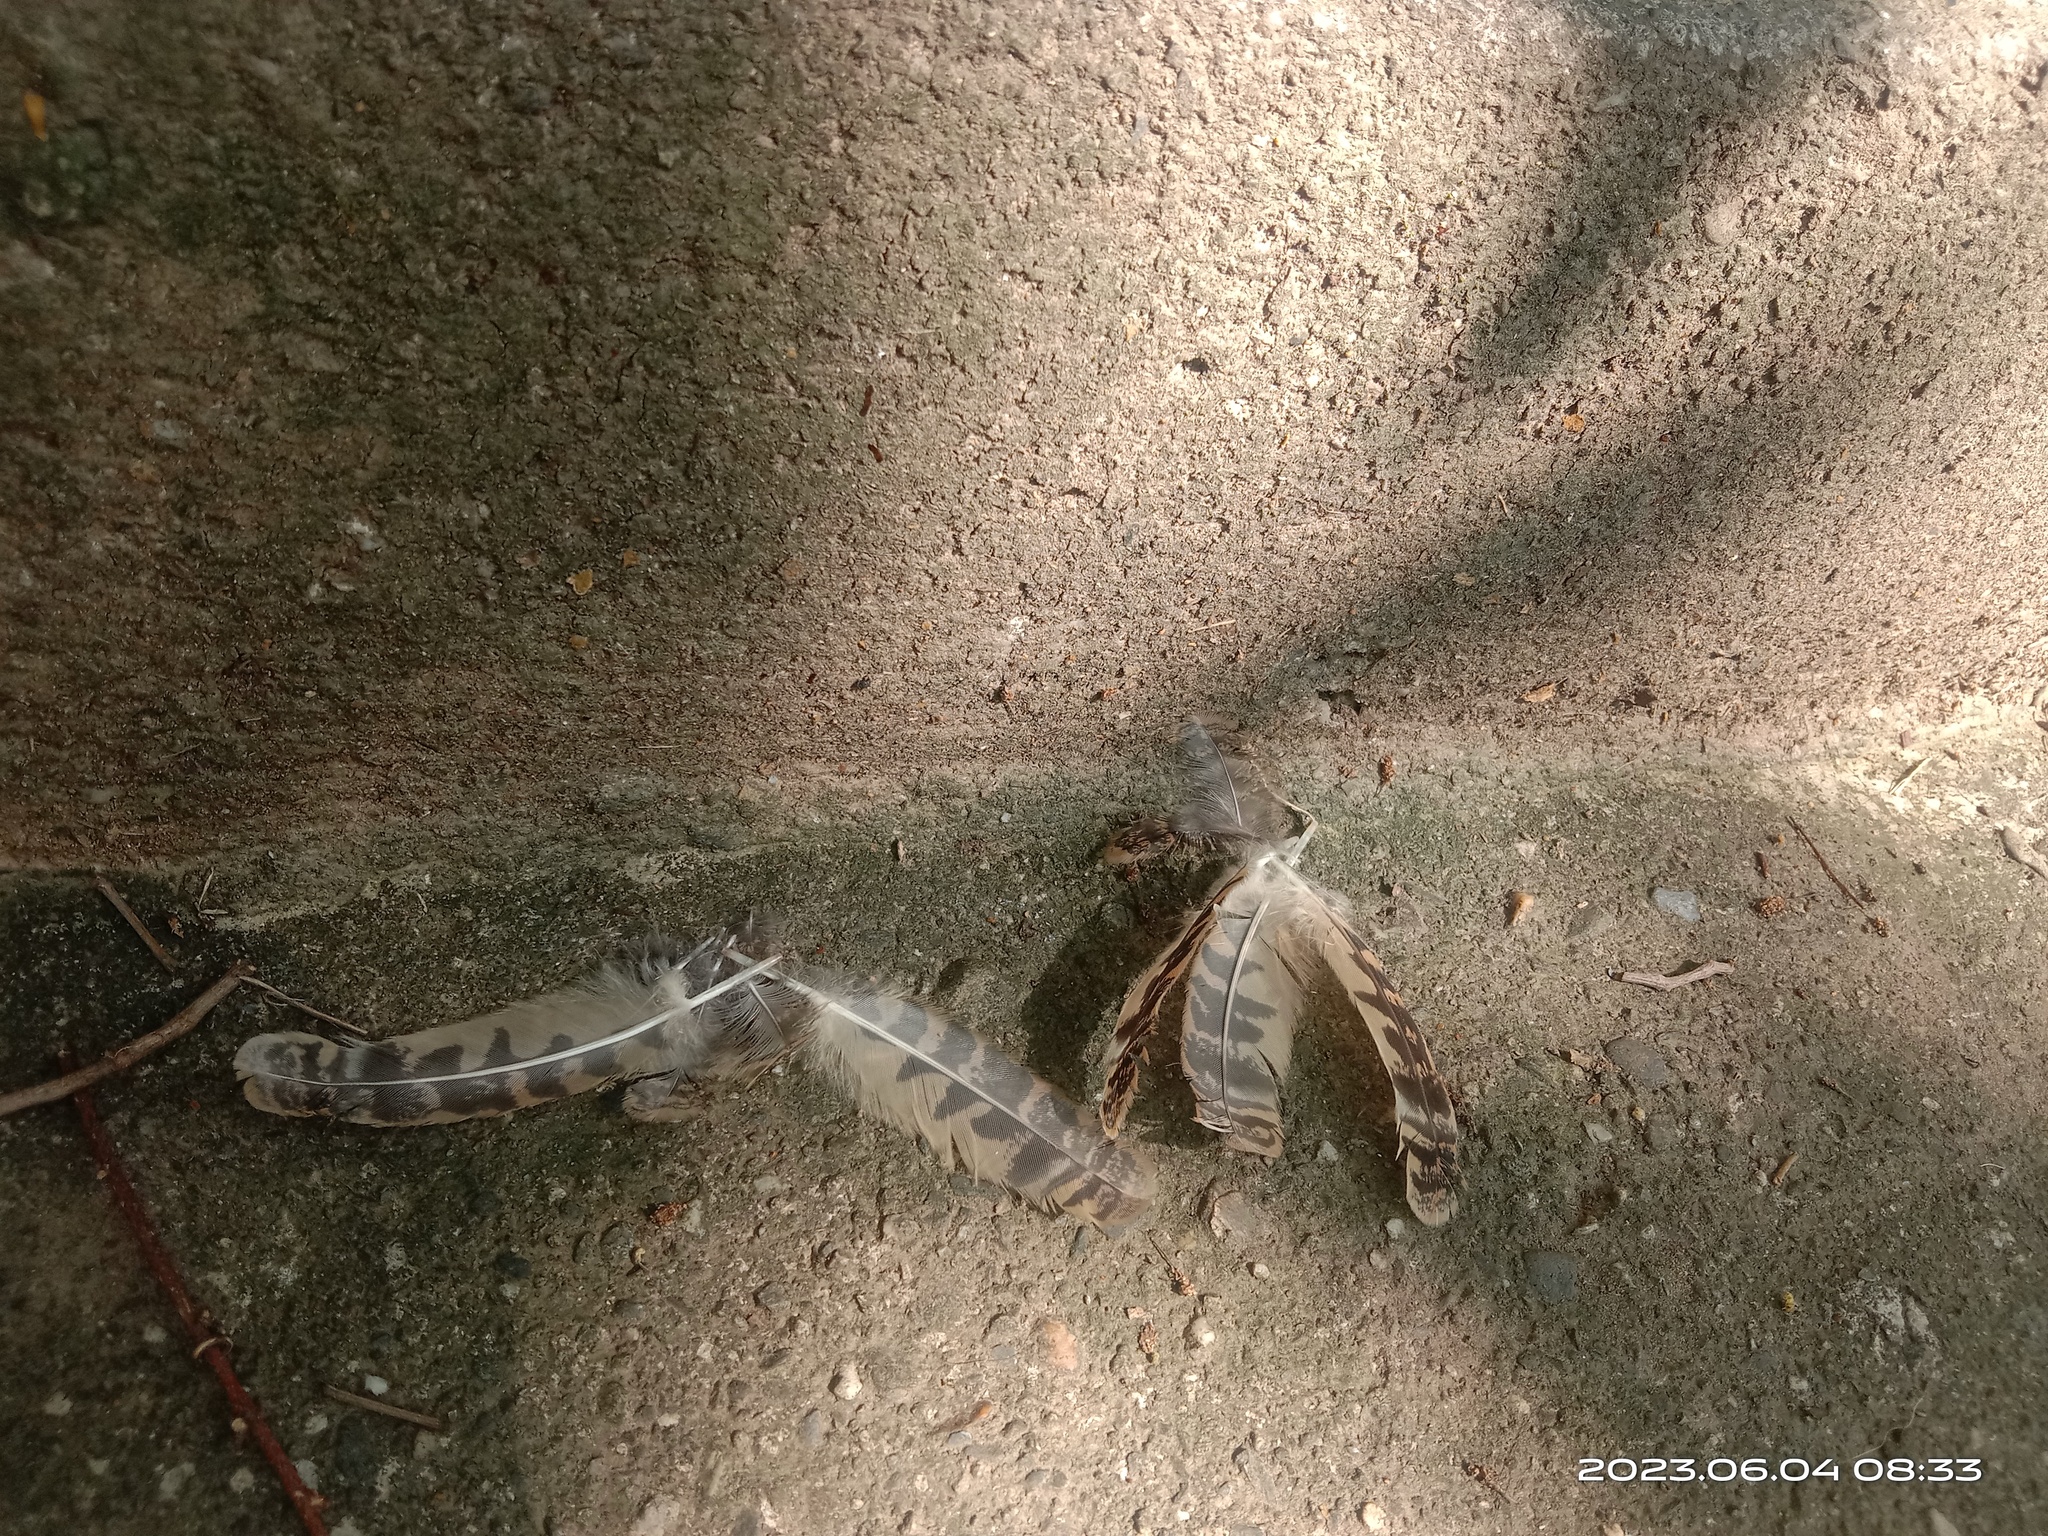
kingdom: Animalia
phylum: Chordata
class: Aves
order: Caprimulgiformes
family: Caprimulgidae
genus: Caprimulgus
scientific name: Caprimulgus affinis
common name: Savanna nightjar
